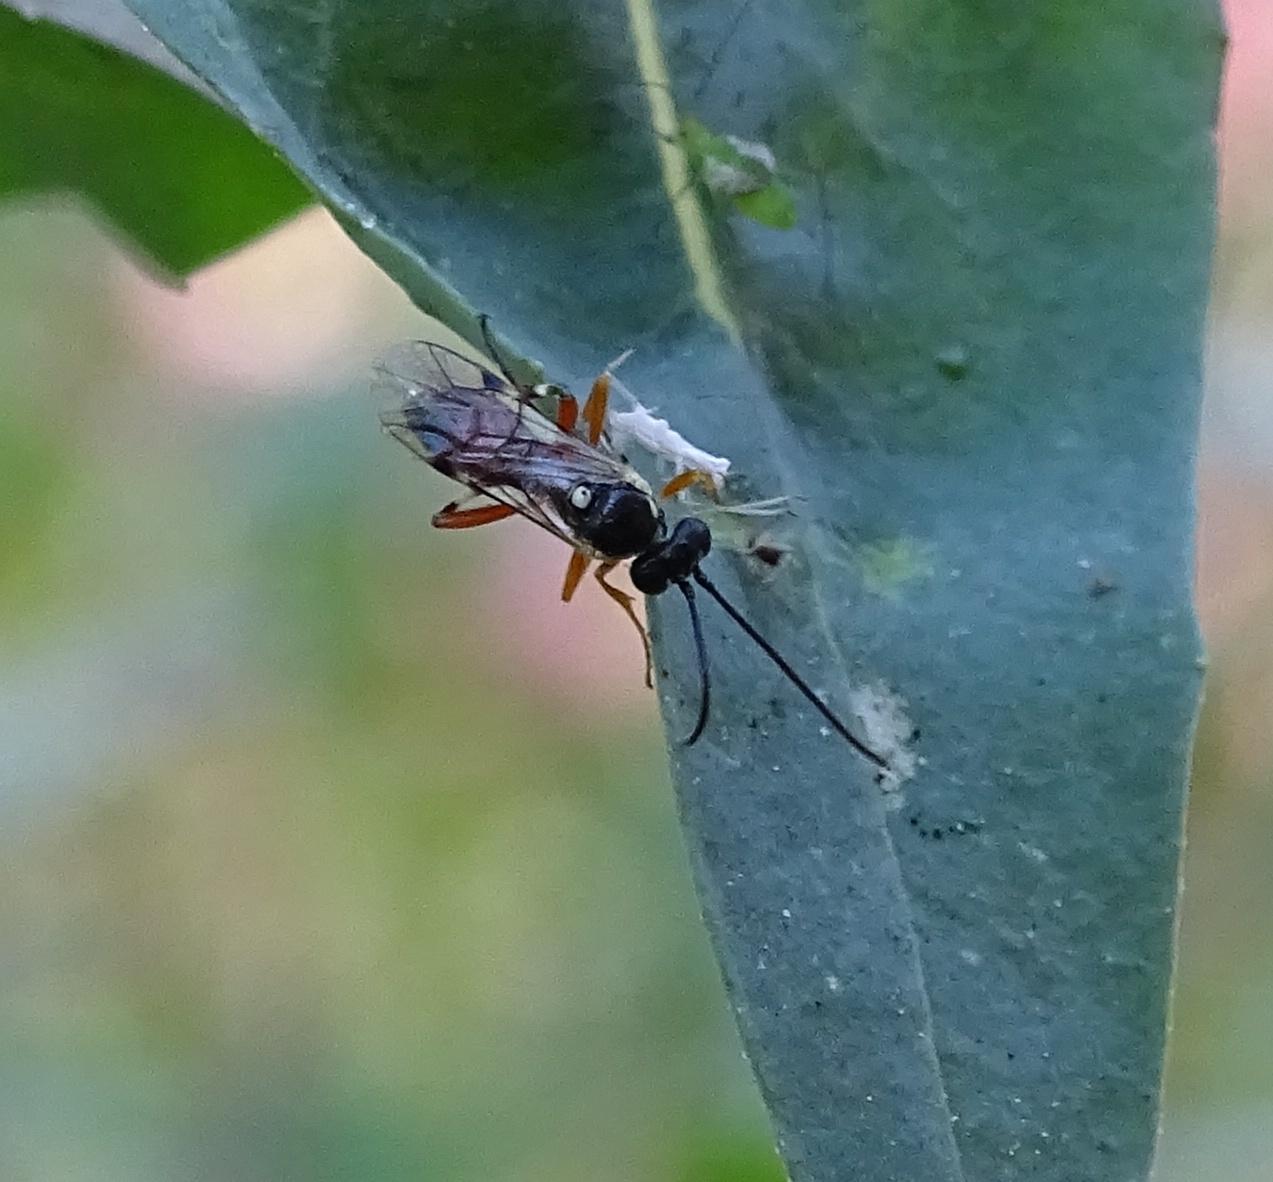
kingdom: Animalia
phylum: Arthropoda
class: Insecta
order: Hymenoptera
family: Ichneumonidae
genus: Diplazon
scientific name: Diplazon laetatorius
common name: Parasitoid wasp
